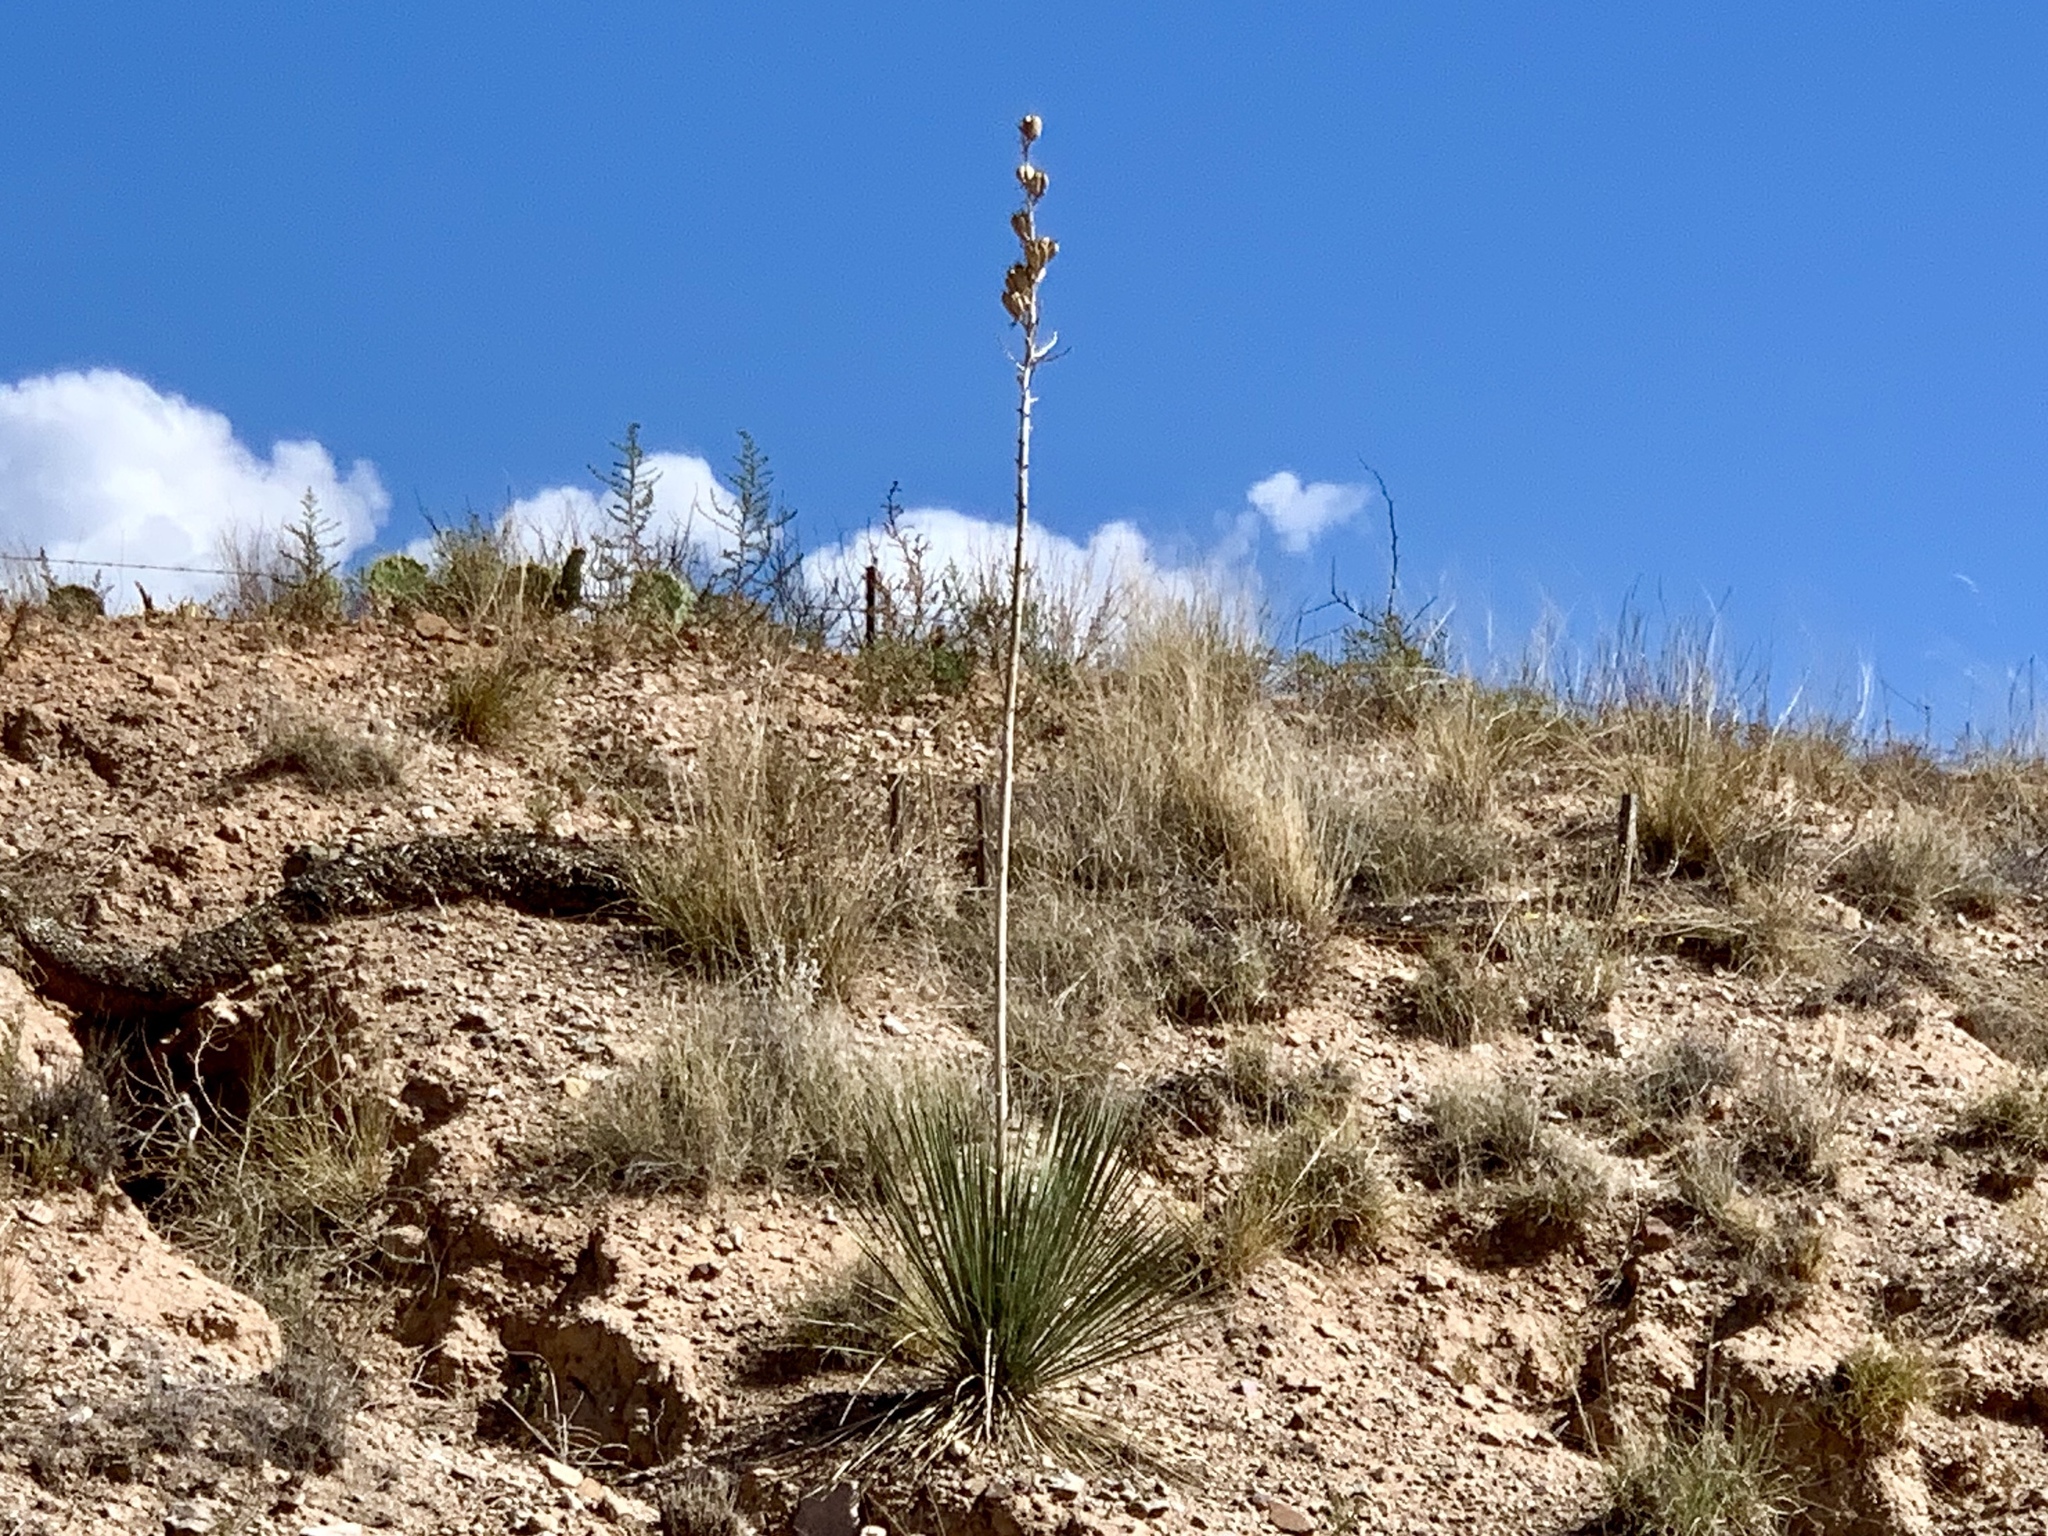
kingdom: Plantae
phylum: Tracheophyta
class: Liliopsida
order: Asparagales
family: Asparagaceae
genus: Yucca
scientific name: Yucca elata
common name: Palmella
